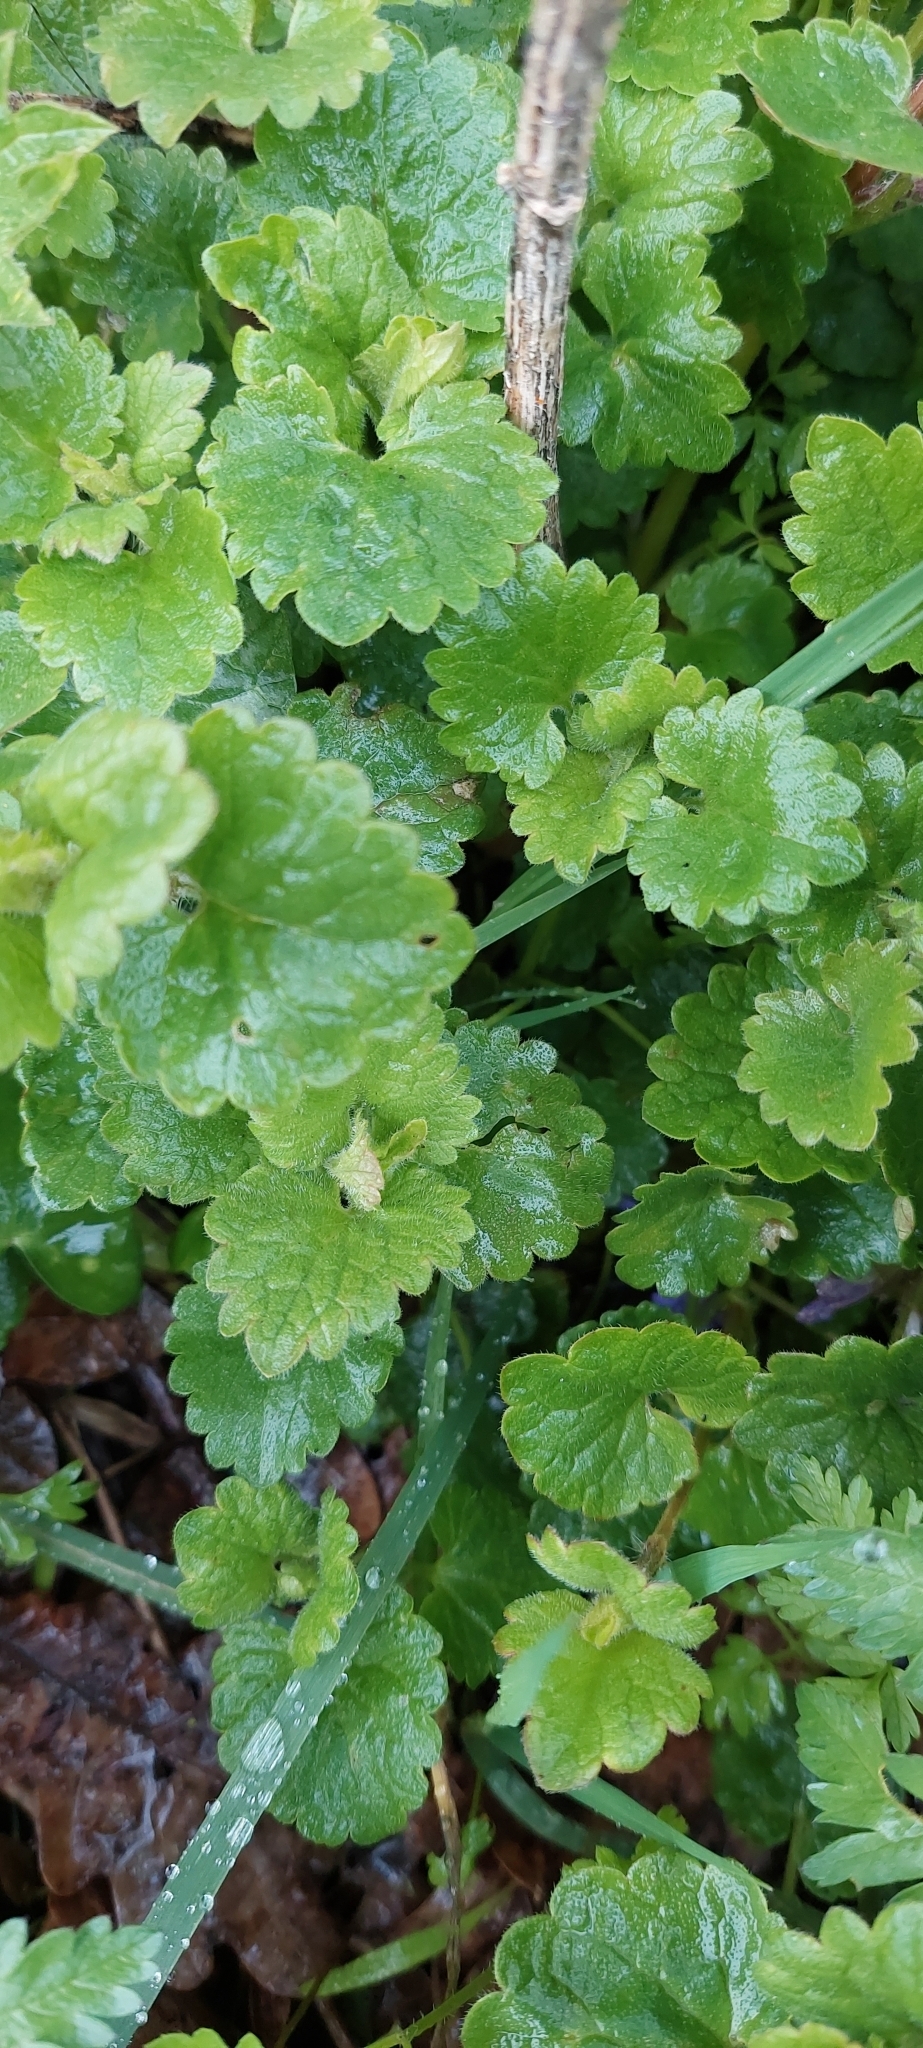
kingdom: Plantae
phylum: Tracheophyta
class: Magnoliopsida
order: Lamiales
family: Lamiaceae
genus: Glechoma
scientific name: Glechoma hederacea
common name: Ground ivy
